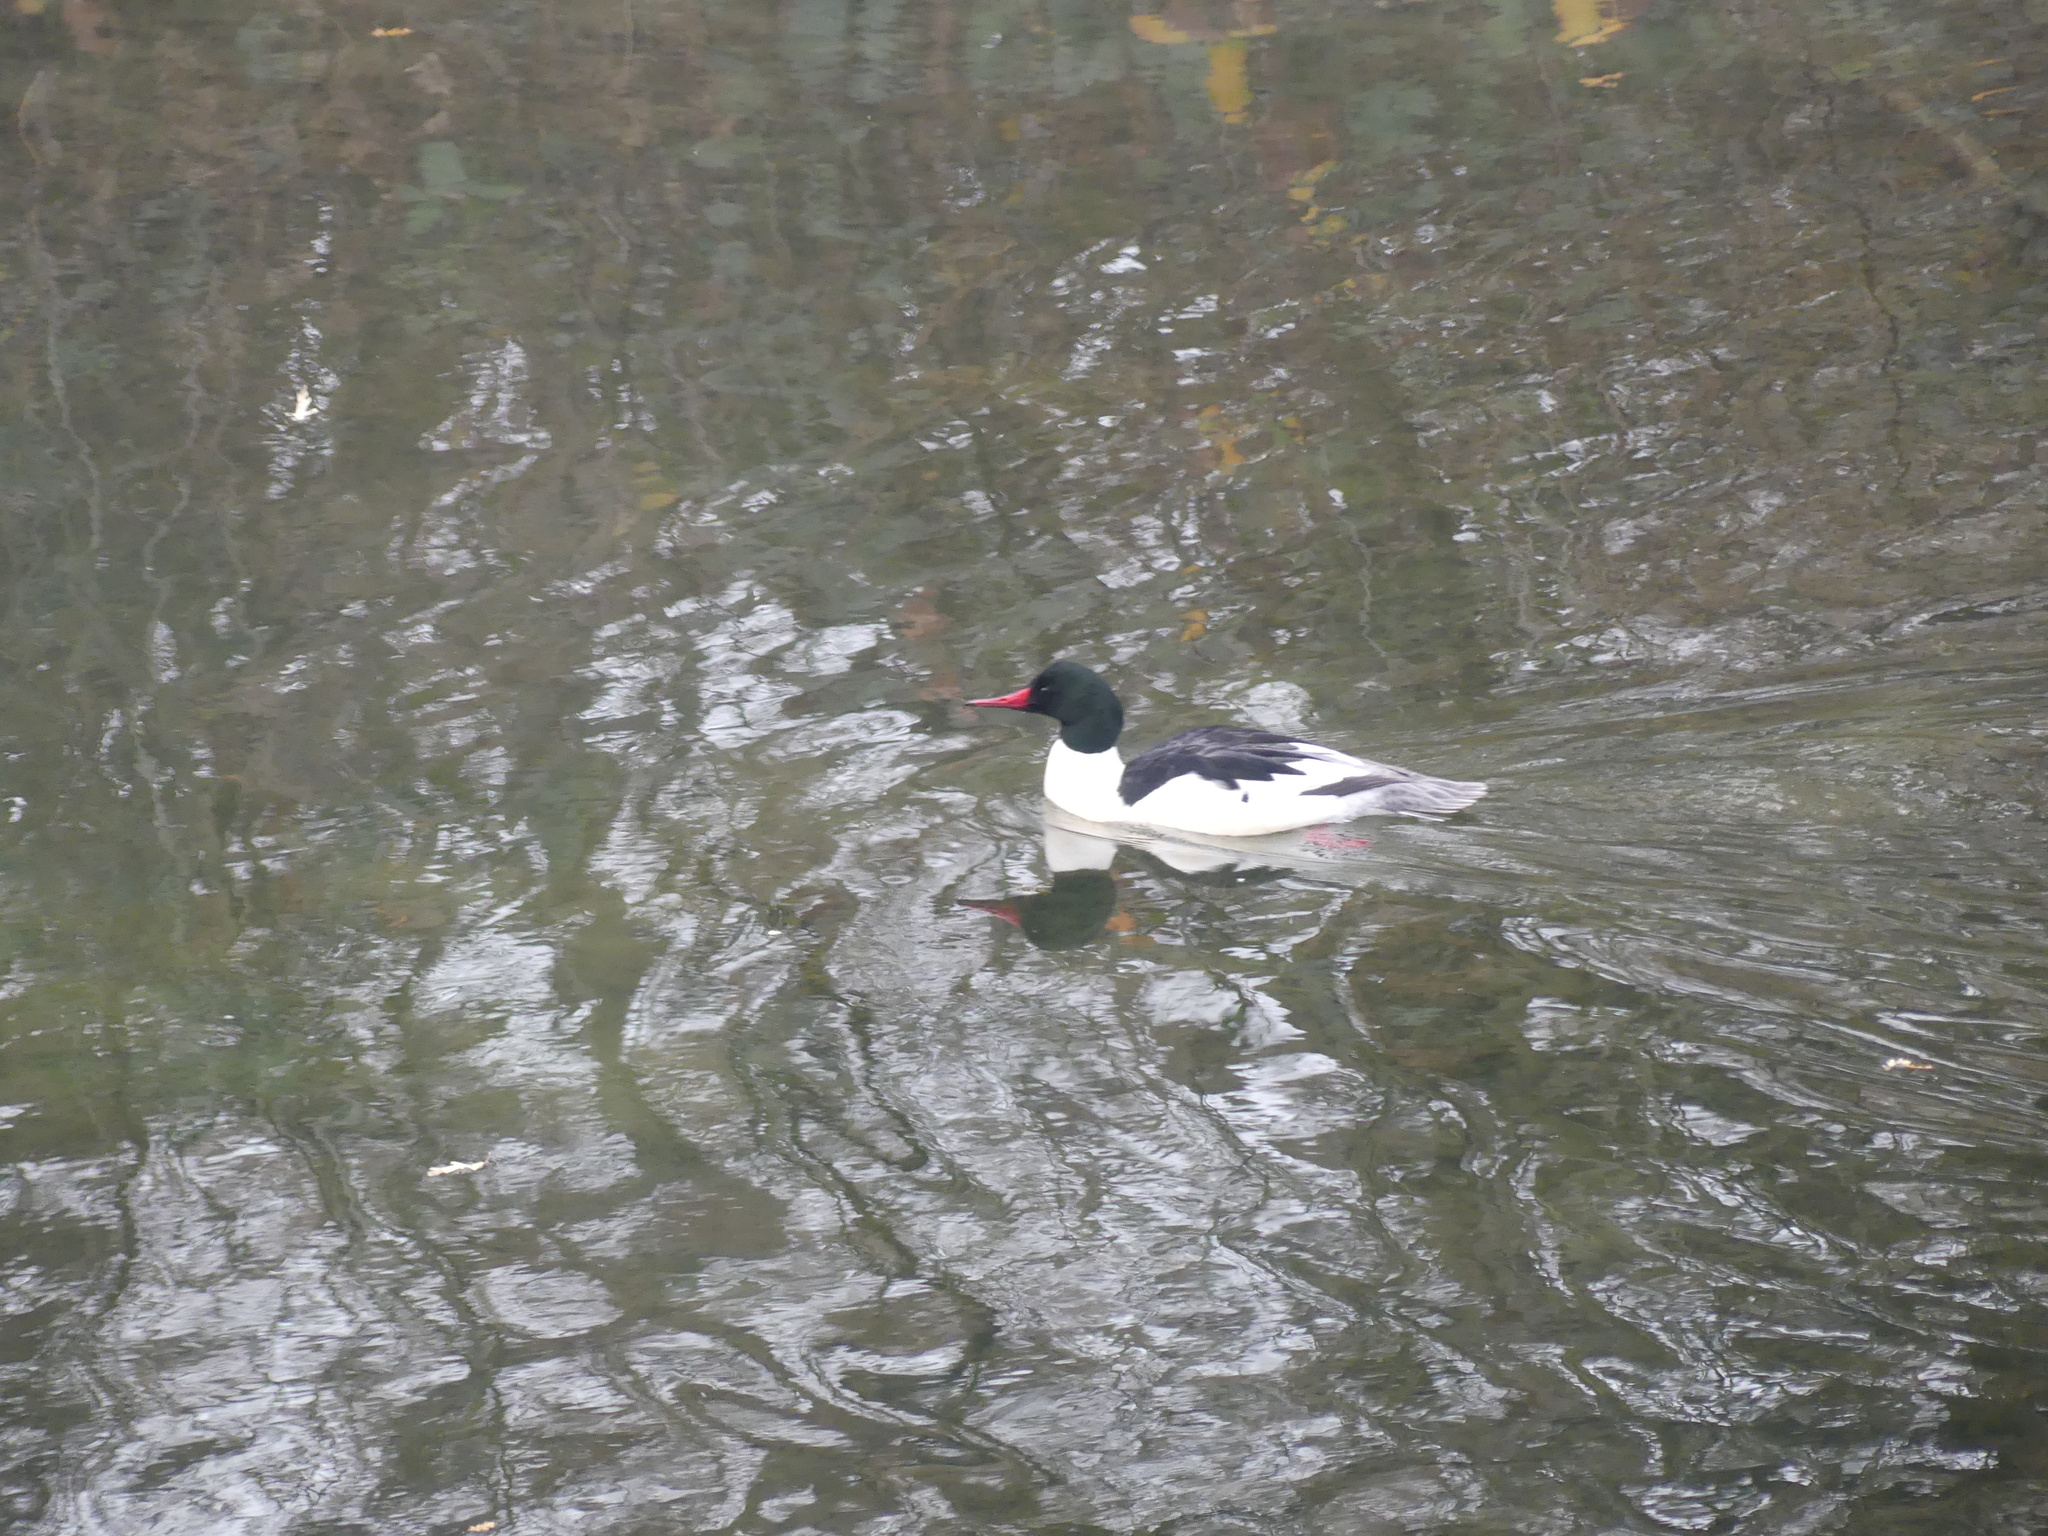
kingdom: Animalia
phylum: Chordata
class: Aves
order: Anseriformes
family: Anatidae
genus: Mergus
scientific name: Mergus merganser
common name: Common merganser
